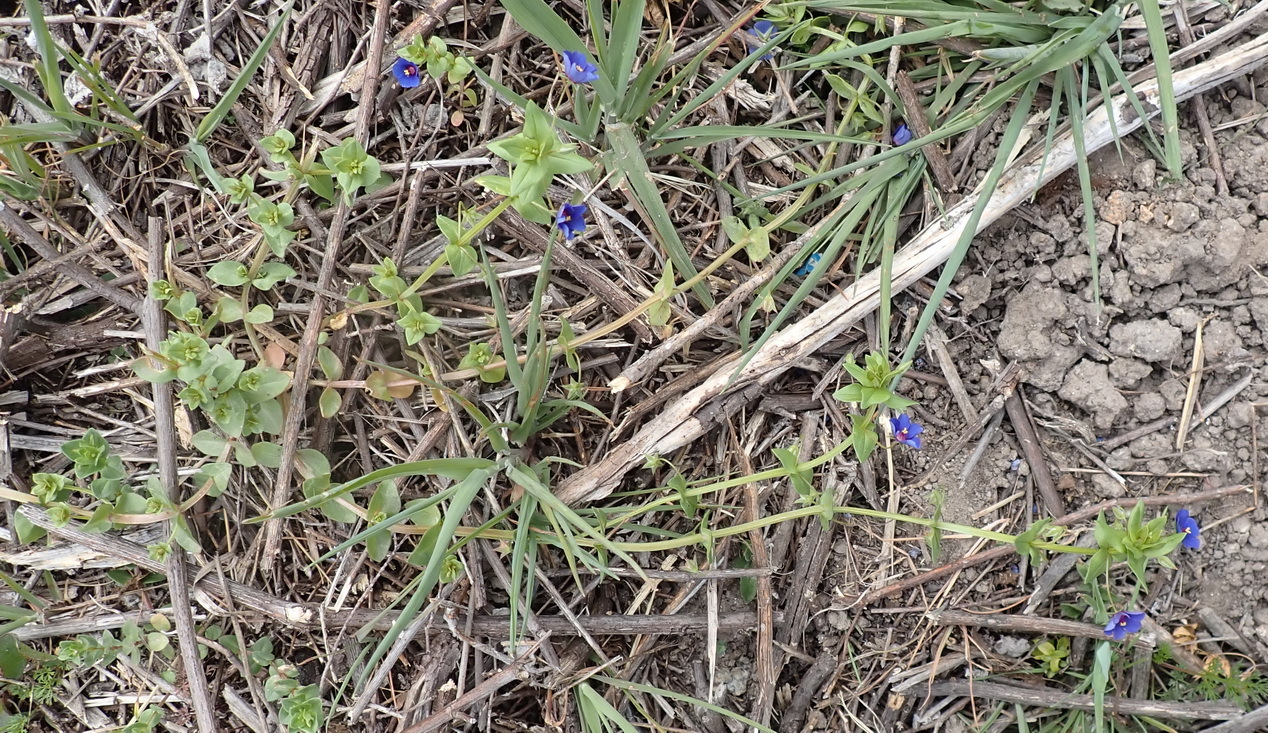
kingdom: Plantae
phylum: Tracheophyta
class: Magnoliopsida
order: Ericales
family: Primulaceae
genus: Lysimachia
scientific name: Lysimachia foemina
